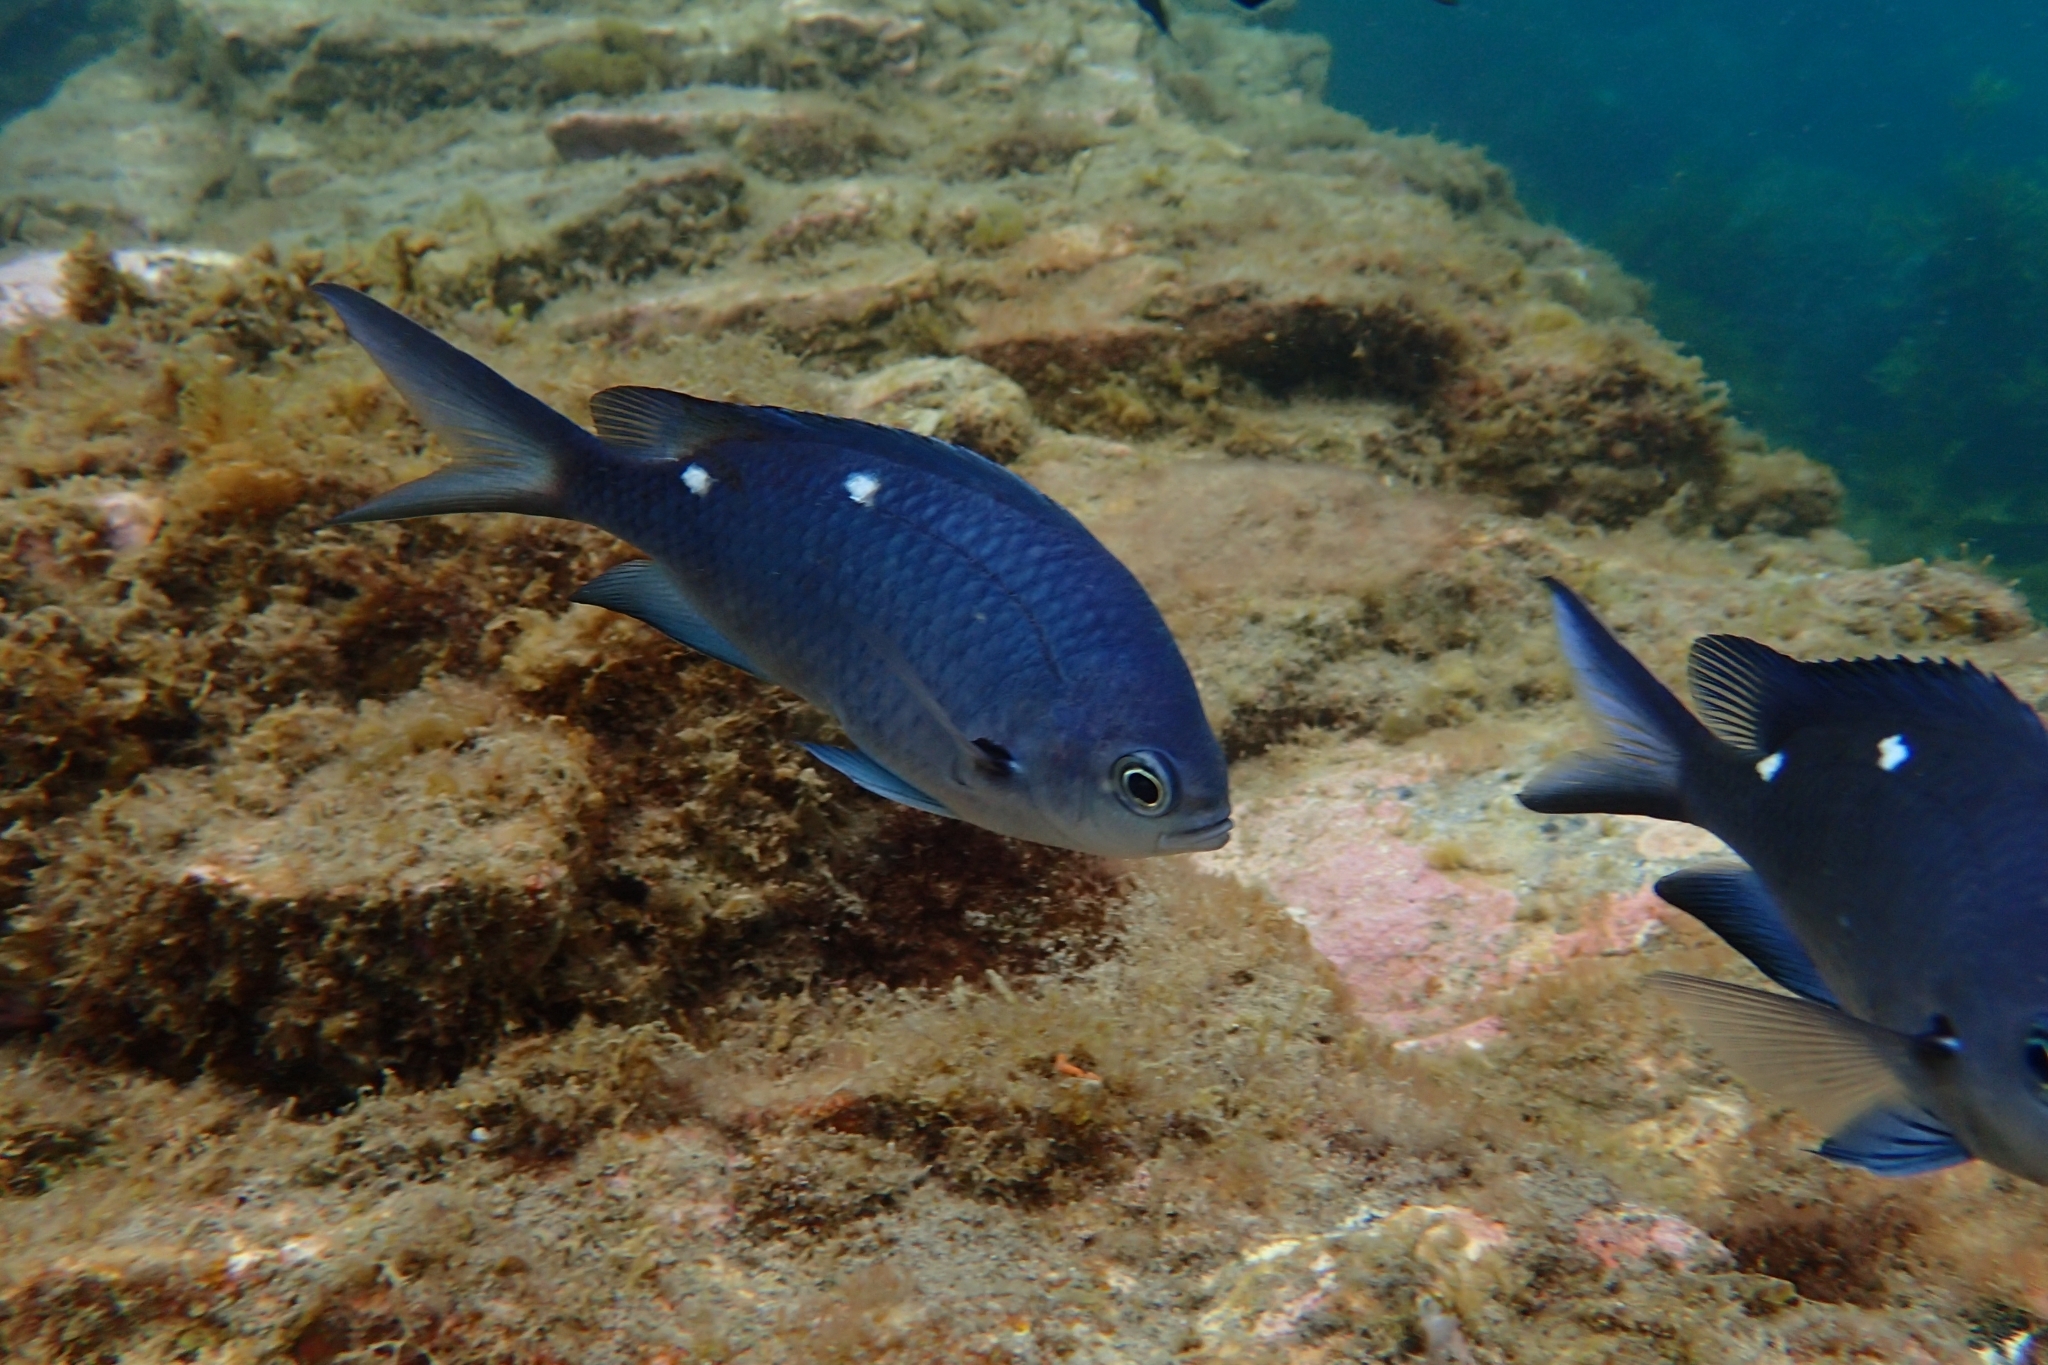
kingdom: Animalia
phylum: Chordata
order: Perciformes
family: Pomacentridae
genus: Chromis
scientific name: Chromis dispilus
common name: Demoiselle
